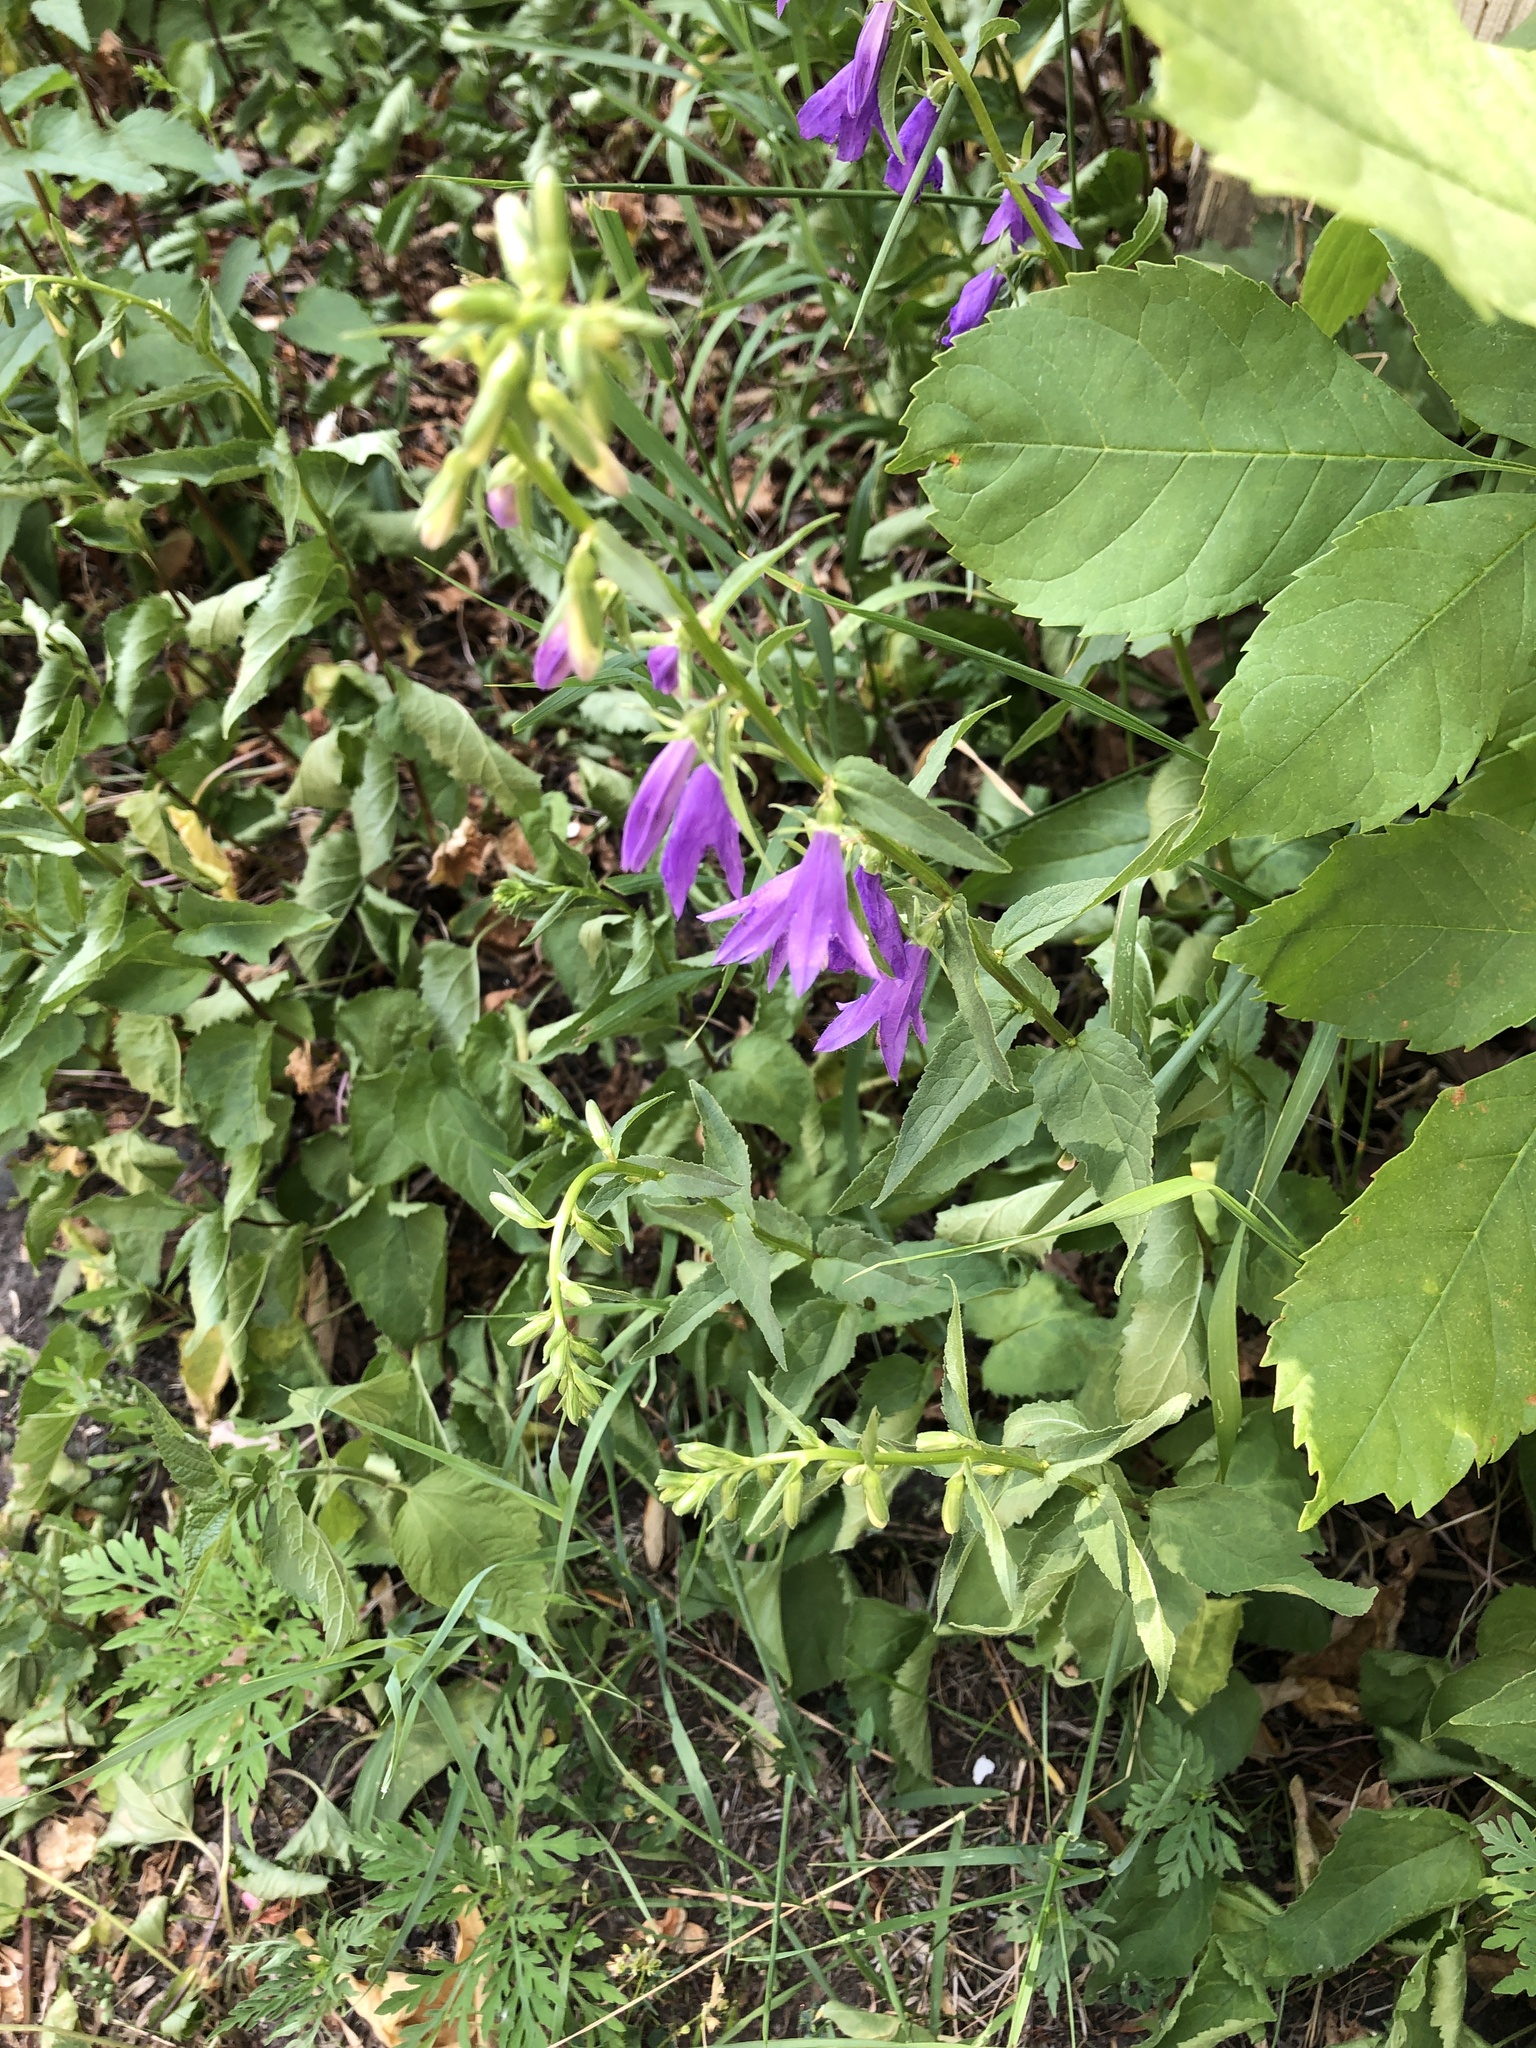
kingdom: Plantae
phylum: Tracheophyta
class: Magnoliopsida
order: Asterales
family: Campanulaceae
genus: Campanula
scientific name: Campanula rapunculoides
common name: Creeping bellflower
